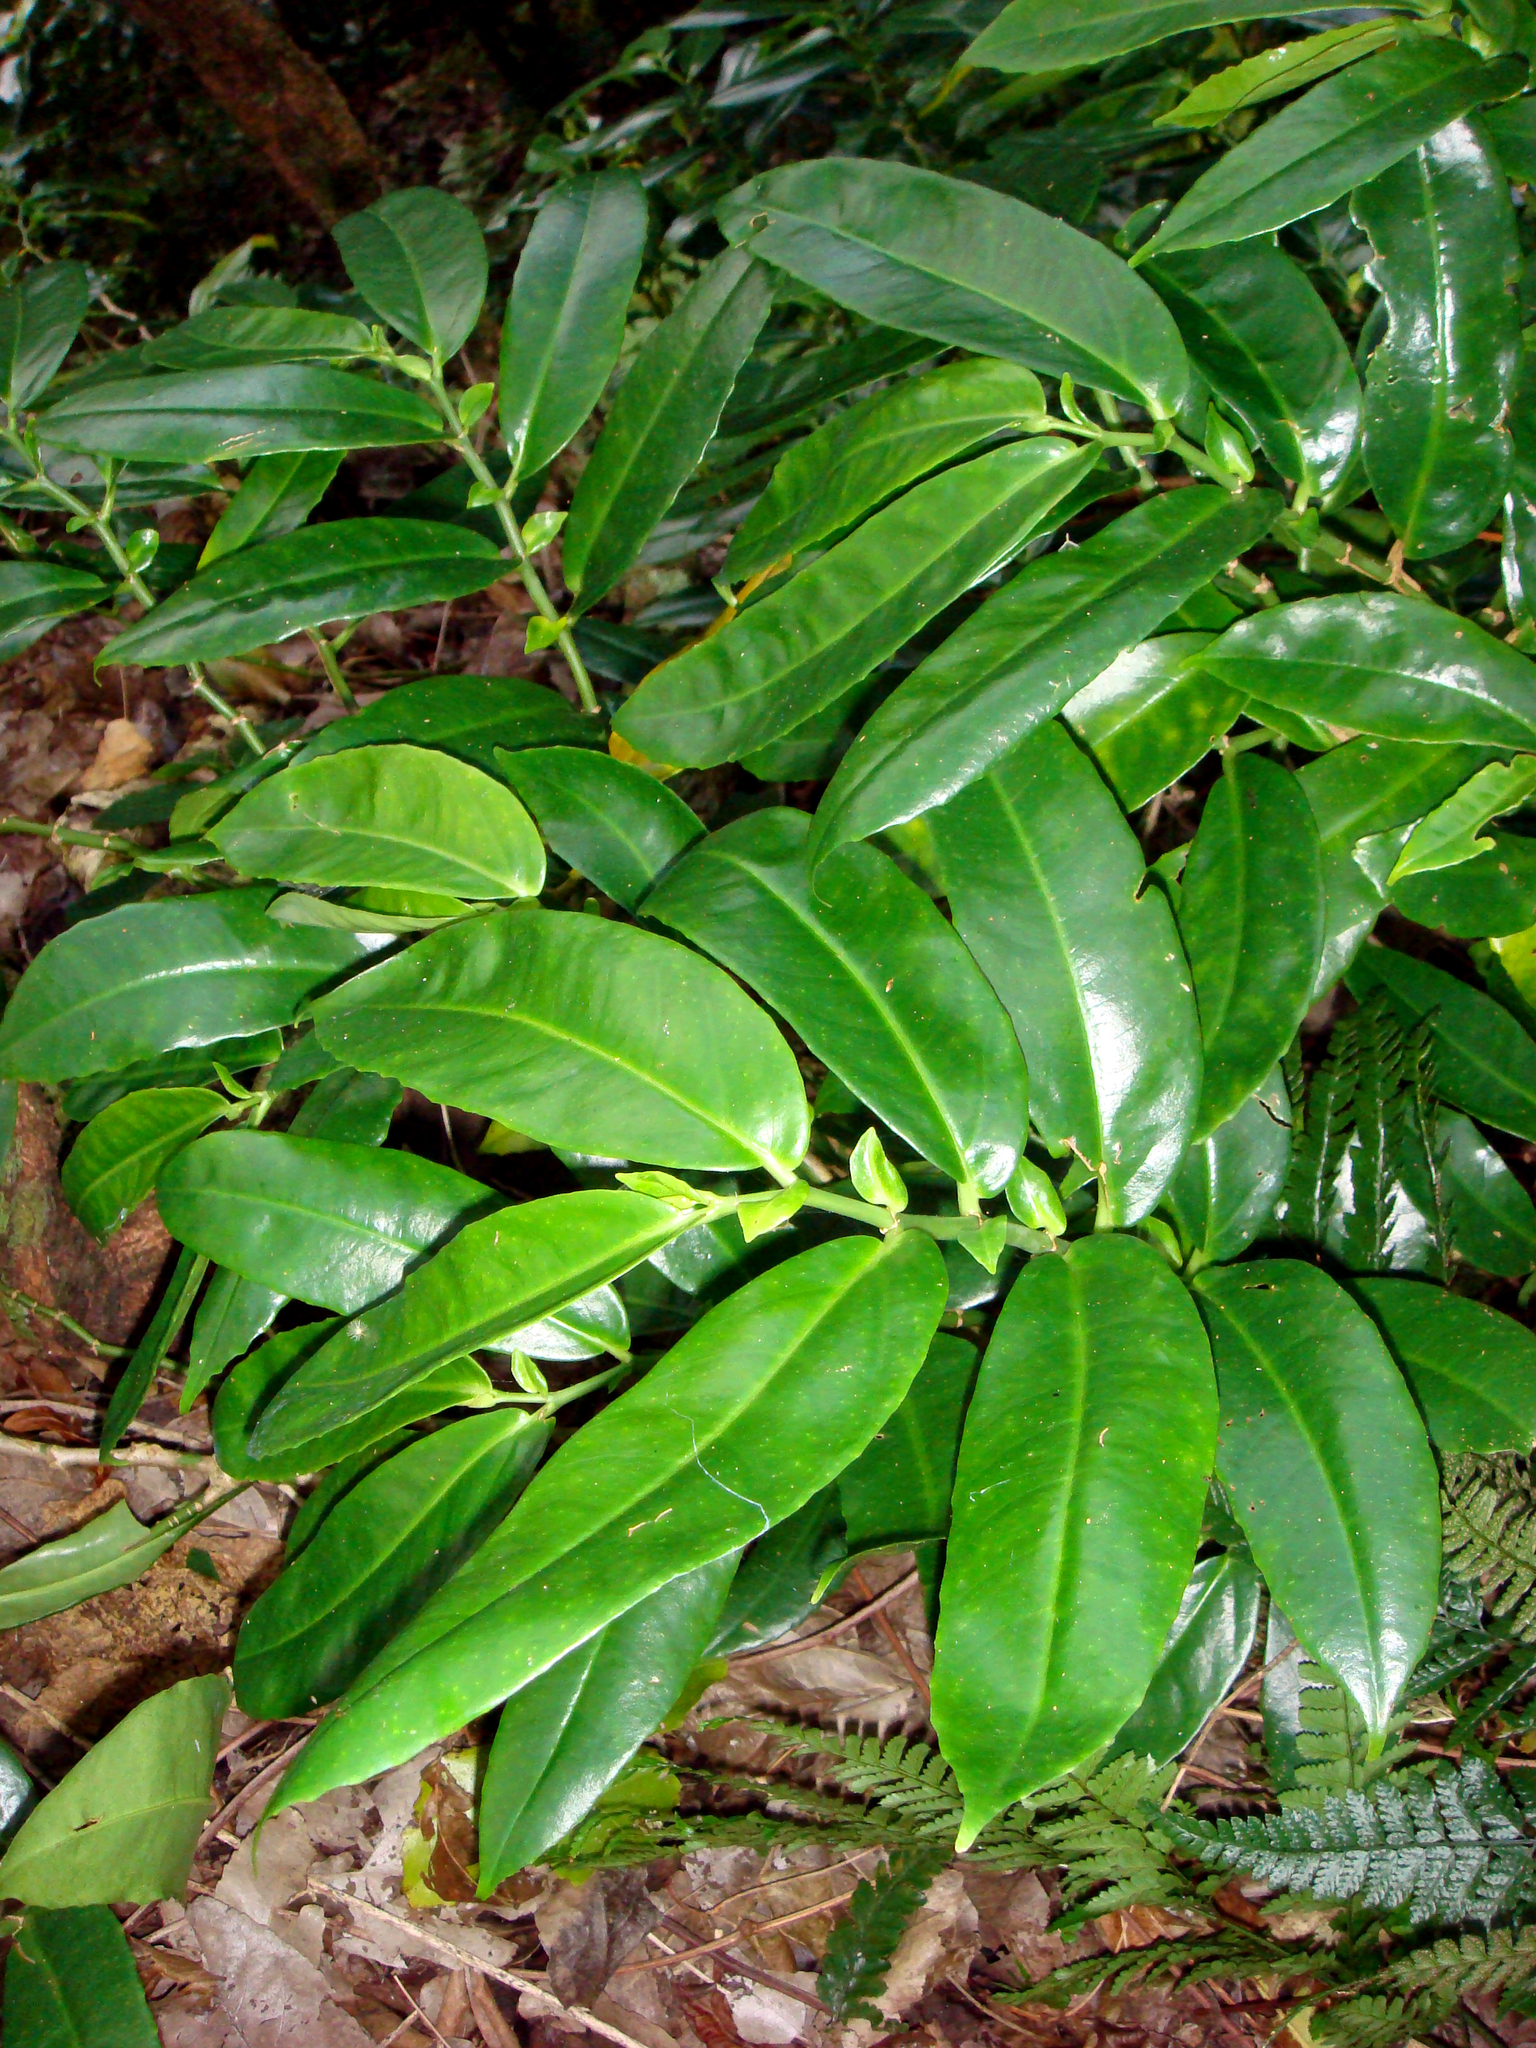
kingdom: Plantae
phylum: Tracheophyta
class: Magnoliopsida
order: Rosales
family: Urticaceae
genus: Procris
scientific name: Procris pedunculata
